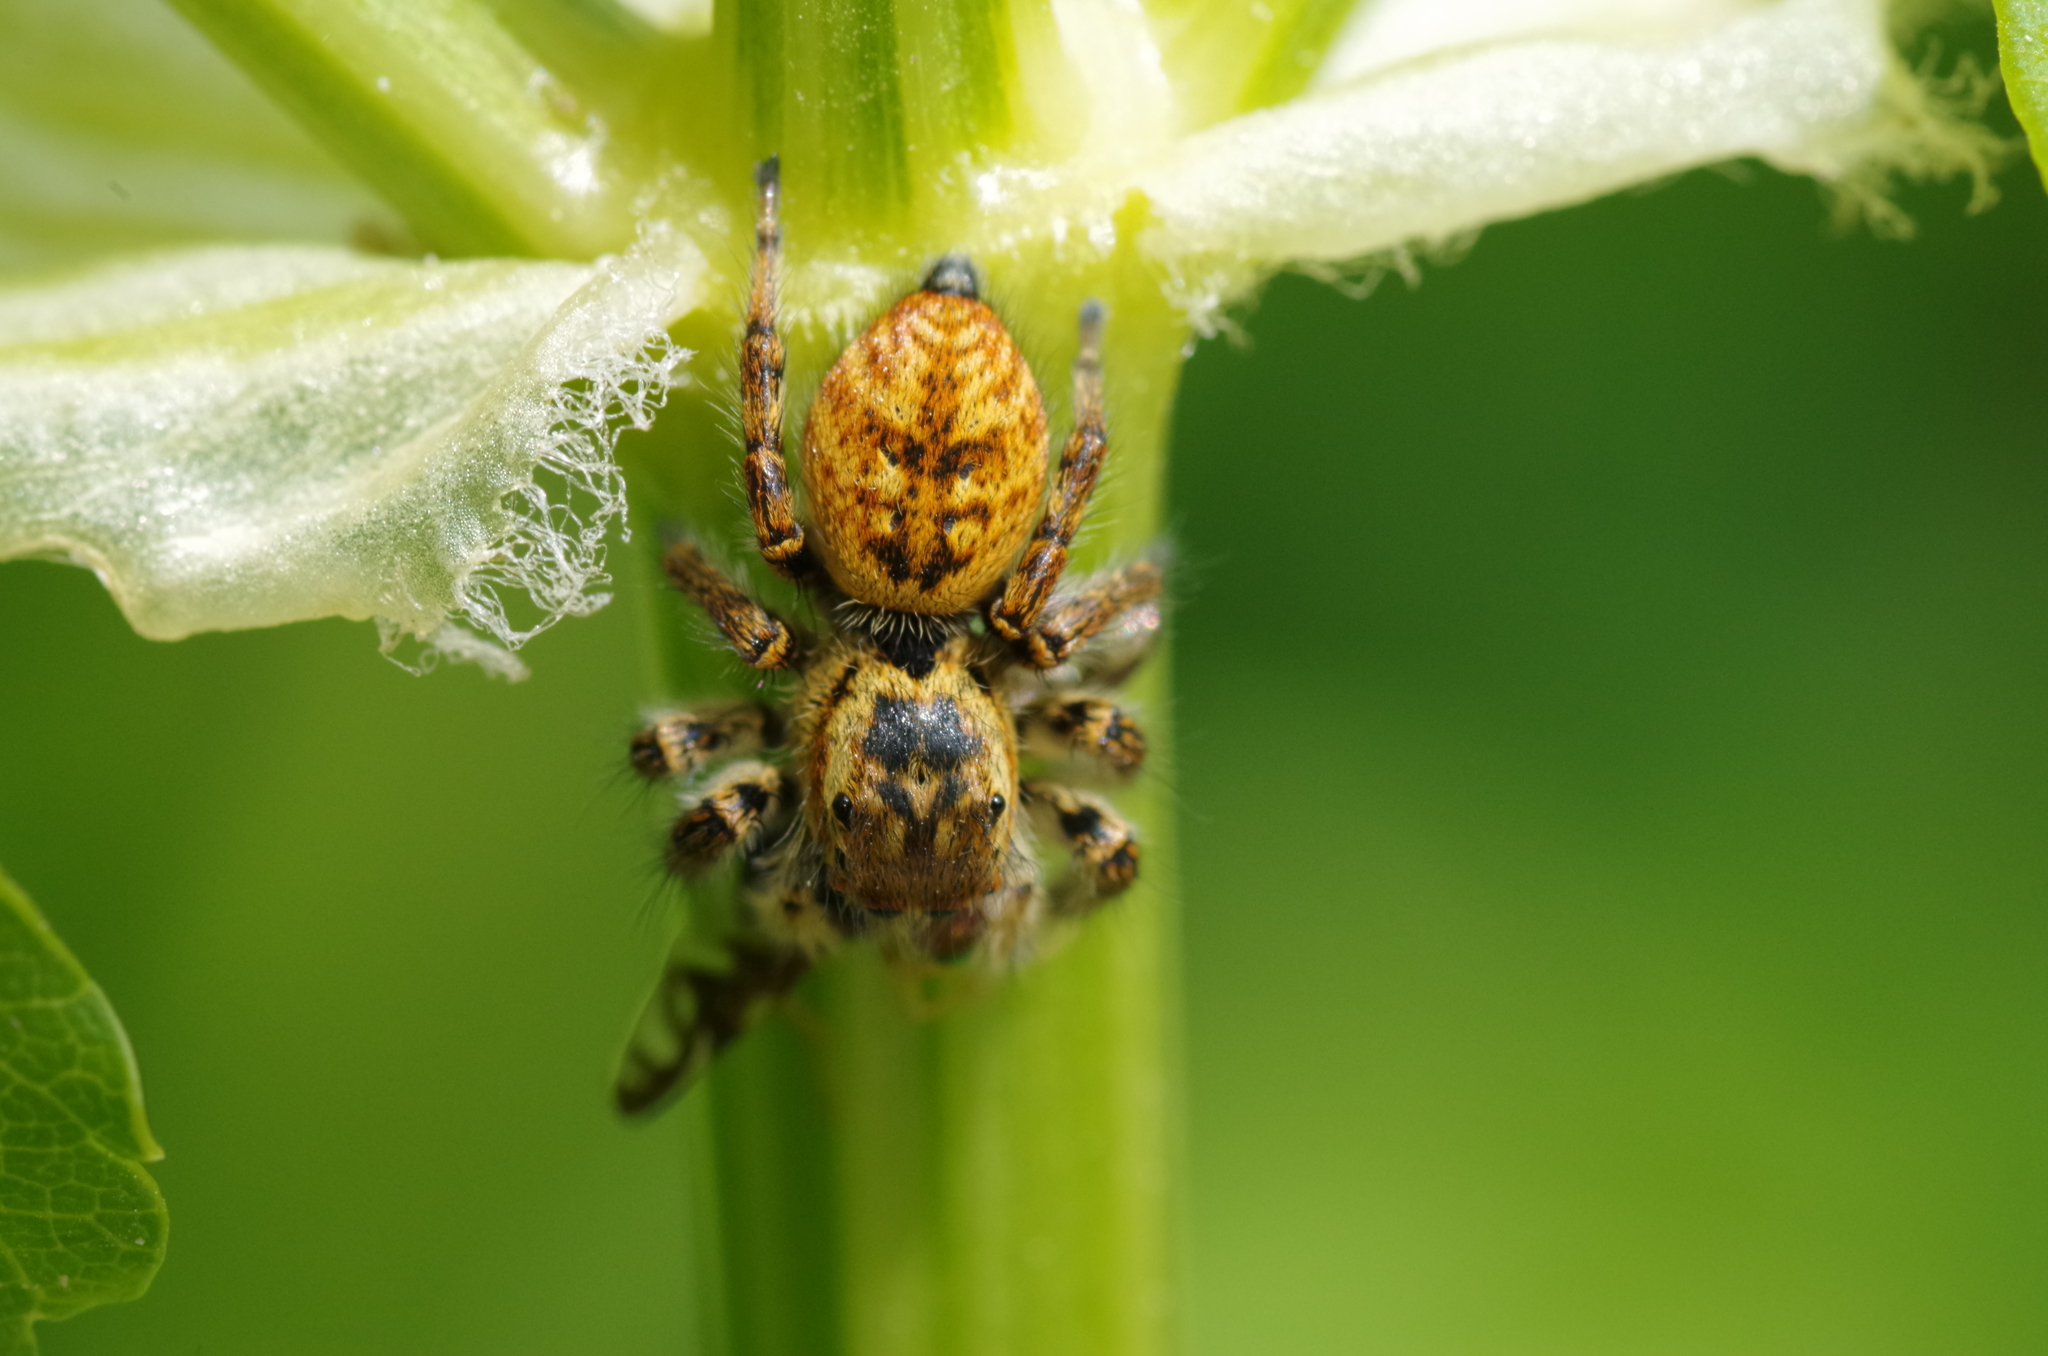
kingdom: Animalia
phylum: Arthropoda
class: Arachnida
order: Araneae
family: Salticidae
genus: Carrhotus
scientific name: Carrhotus xanthogramma
